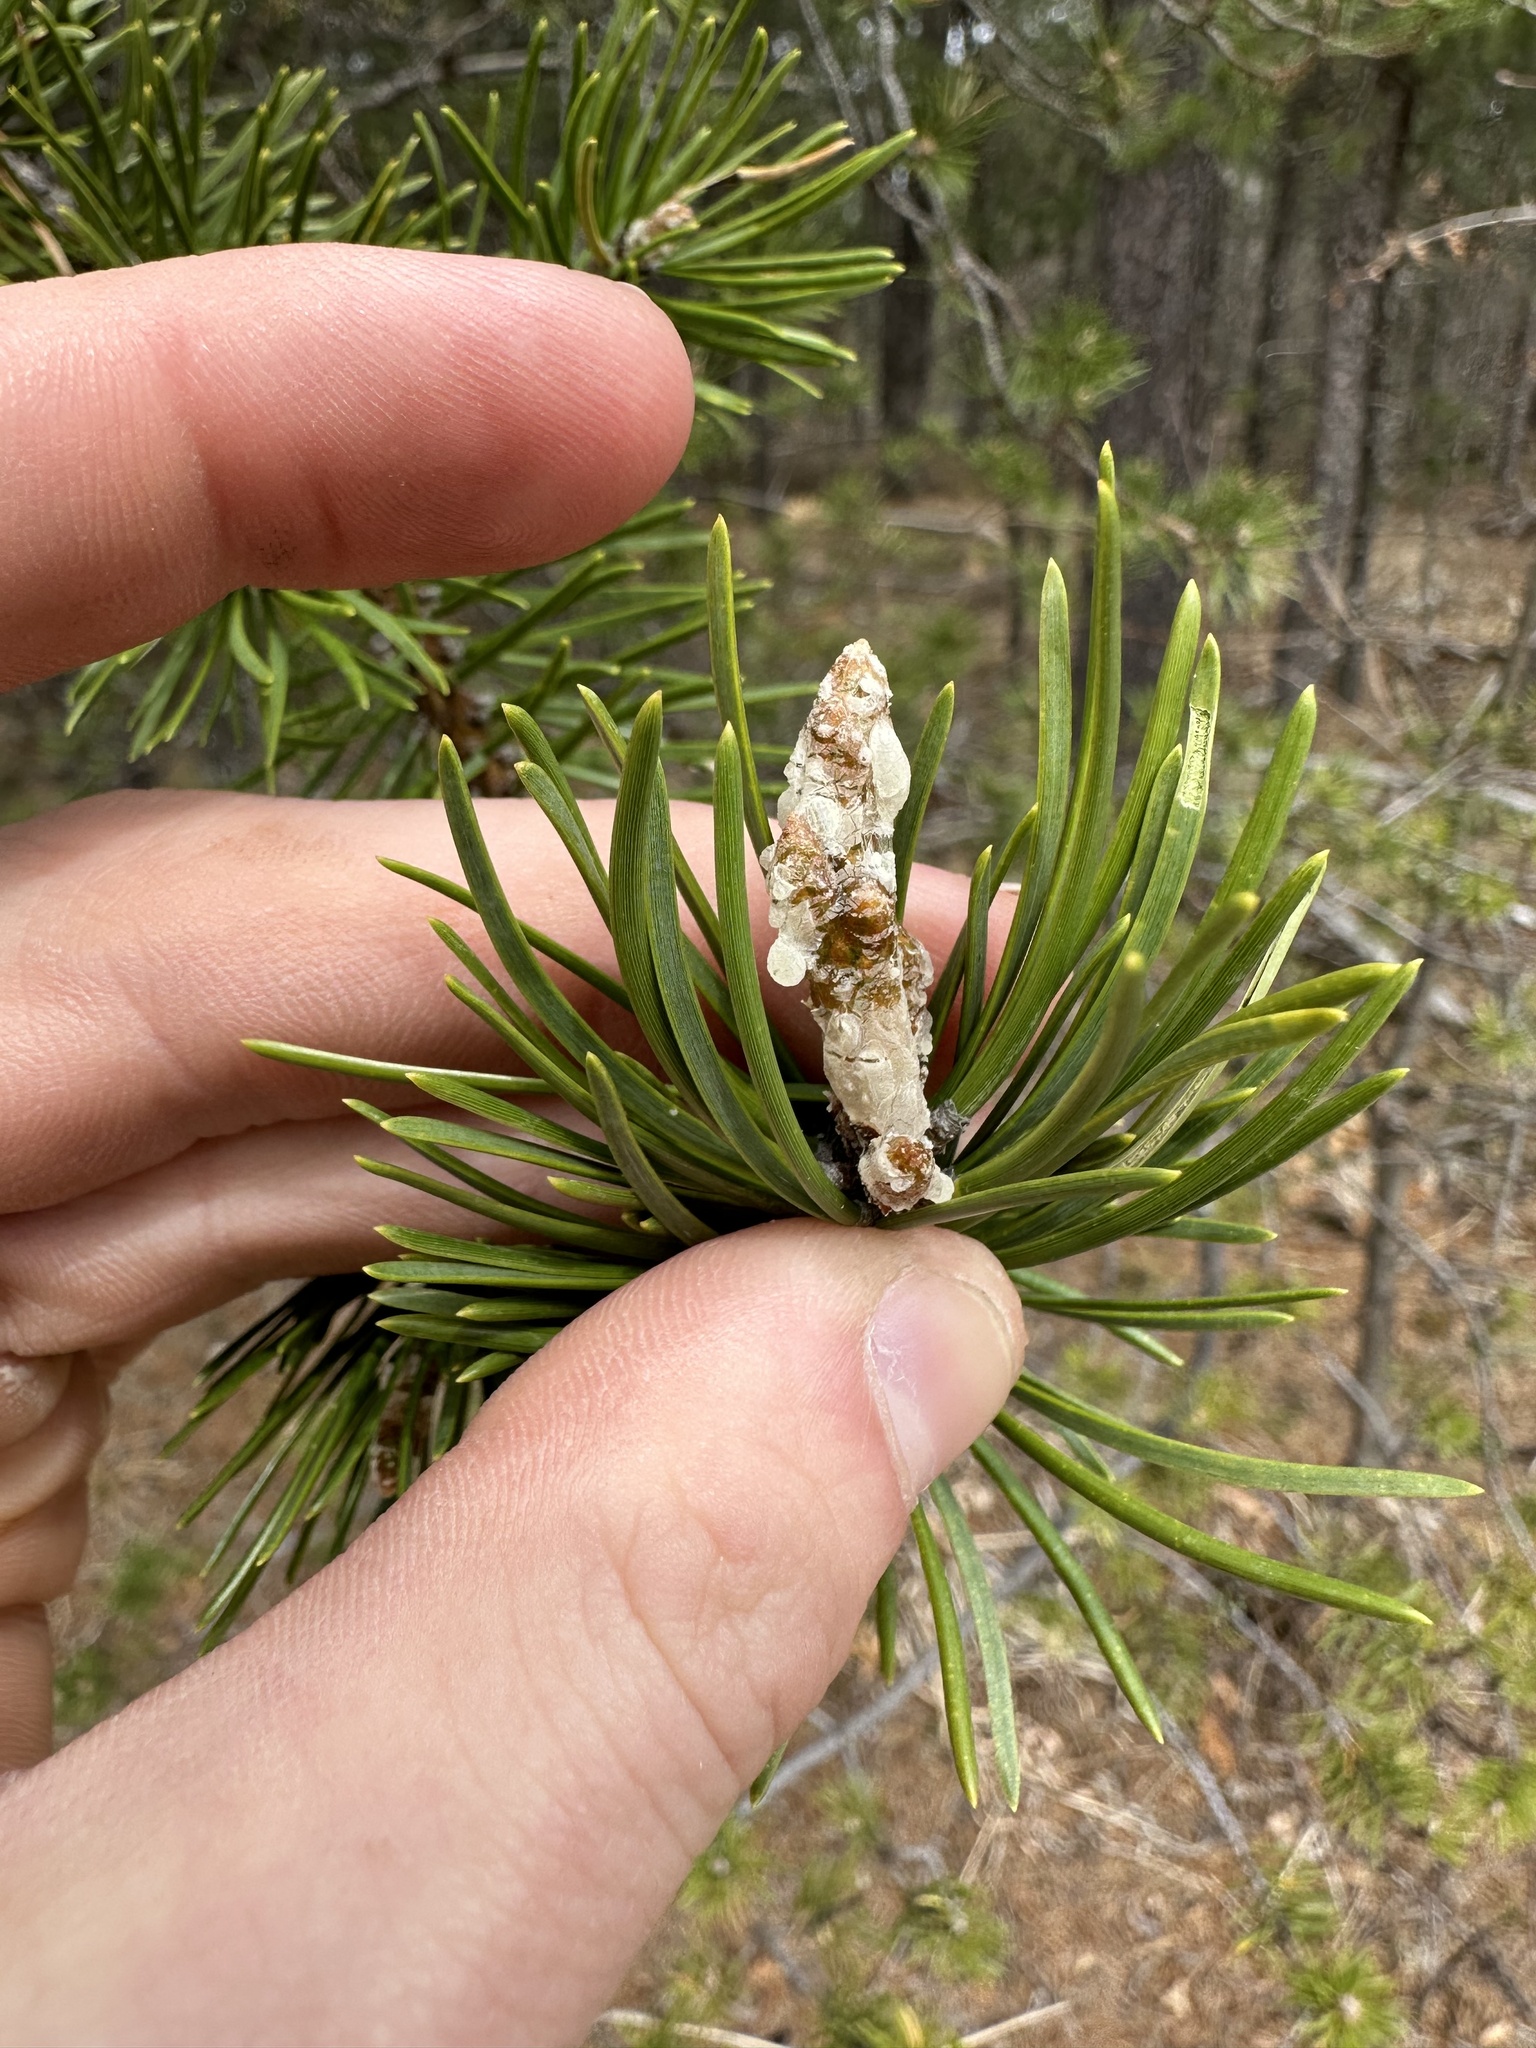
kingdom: Plantae
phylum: Tracheophyta
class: Pinopsida
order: Pinales
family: Pinaceae
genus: Pinus
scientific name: Pinus banksiana
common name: Jack pine
